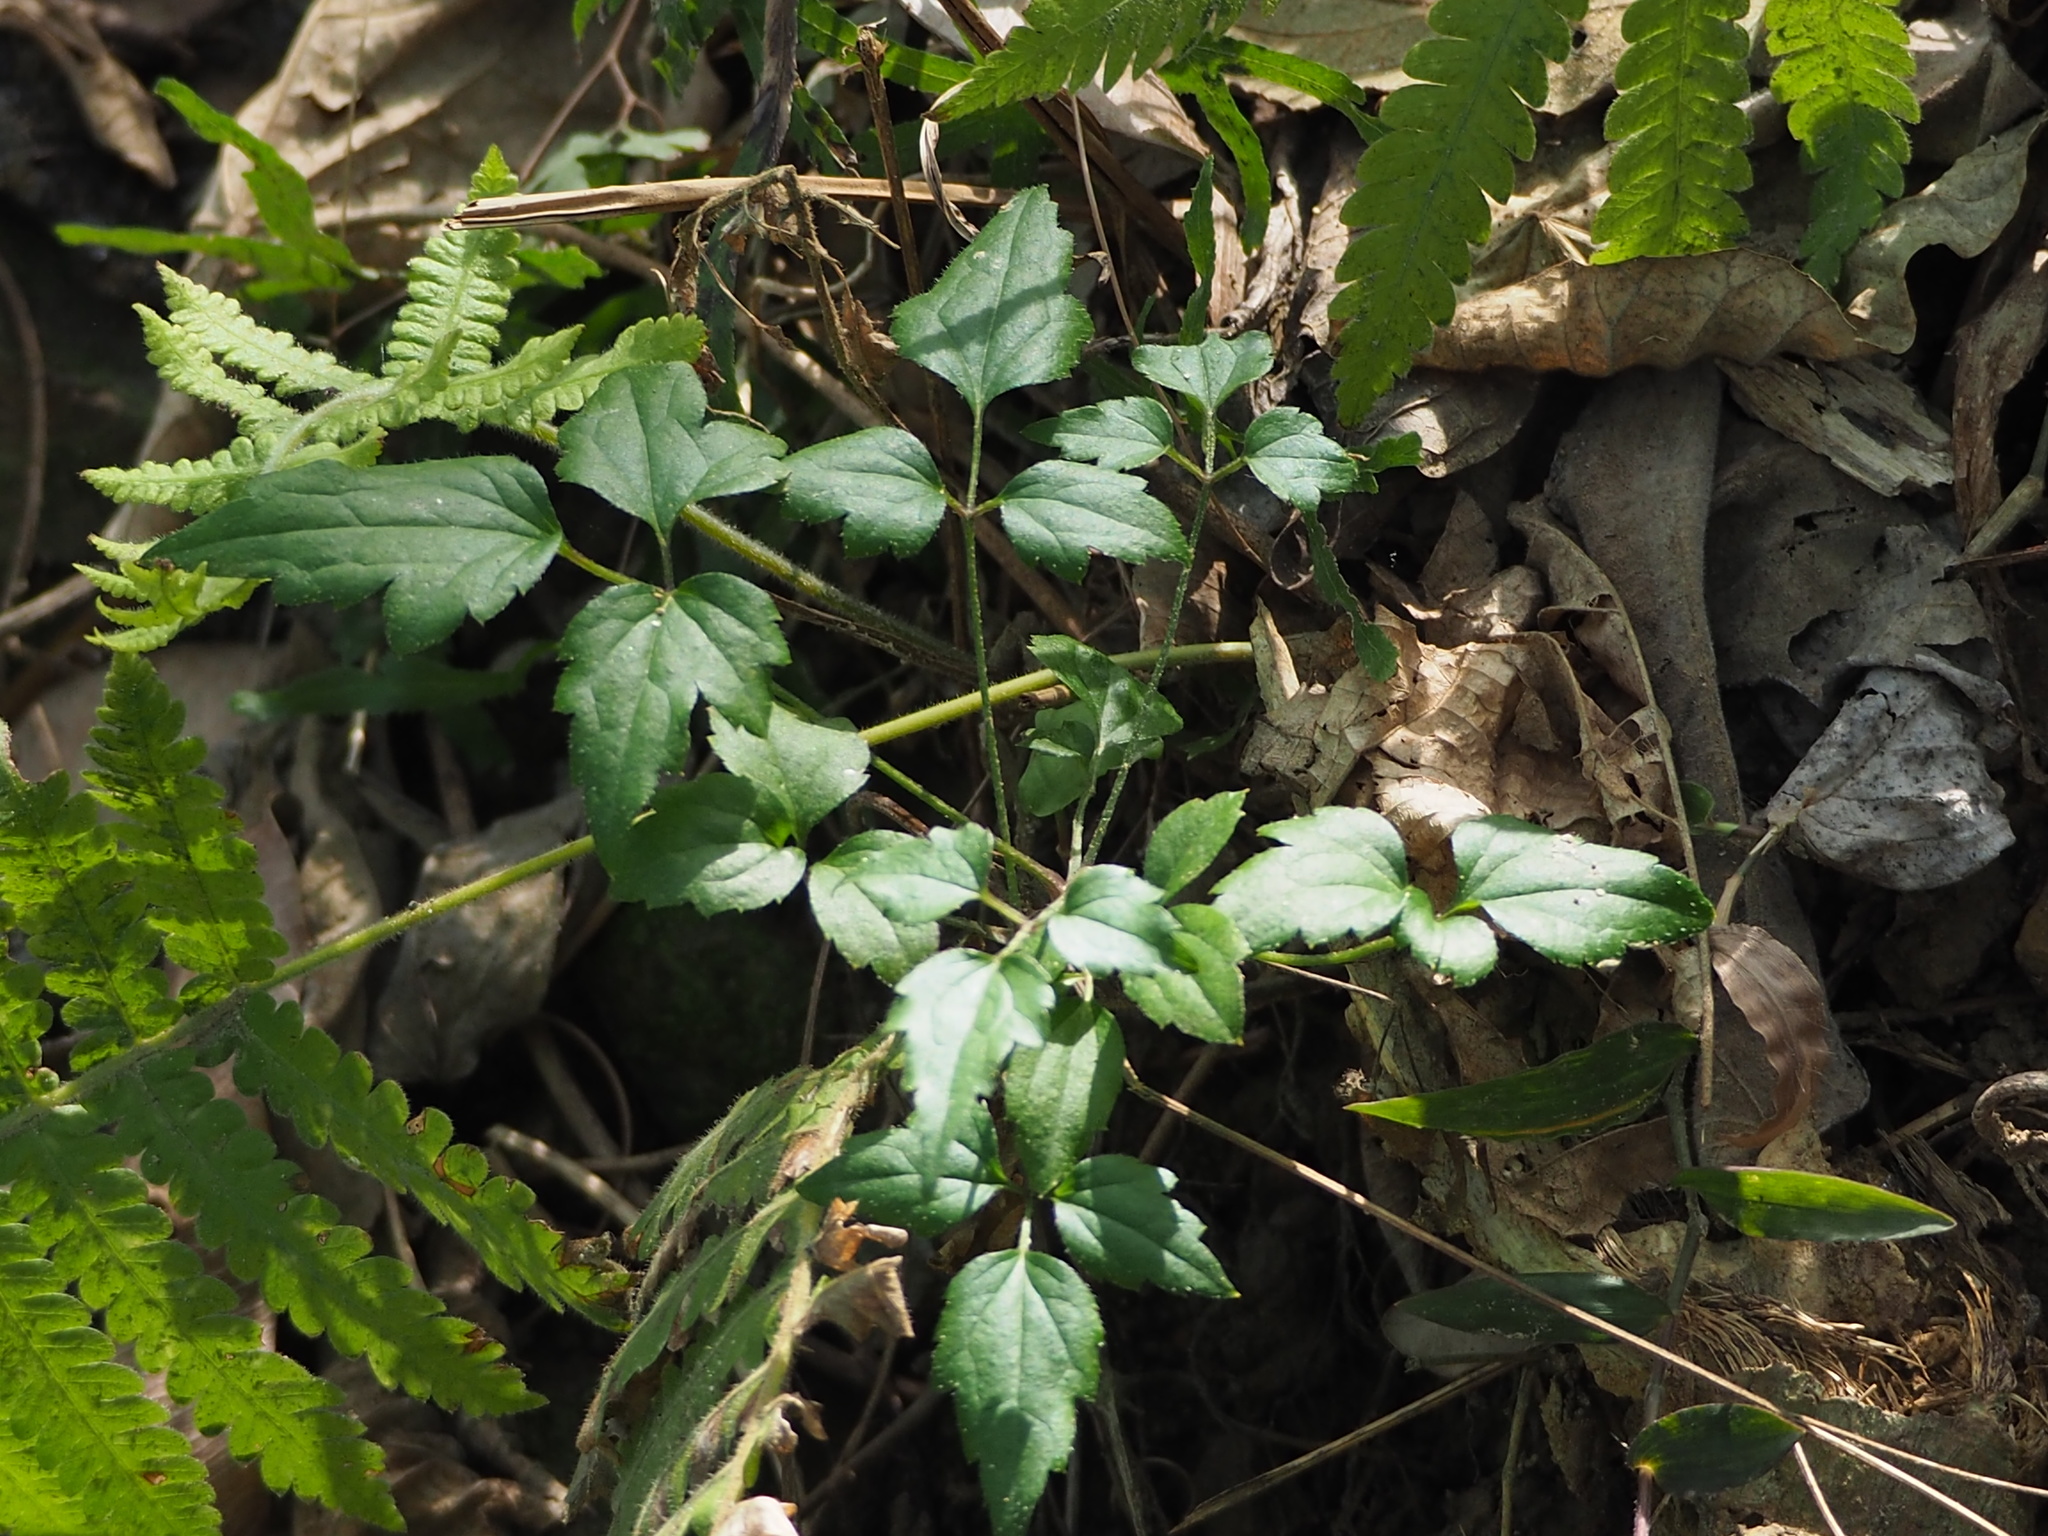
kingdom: Plantae
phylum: Tracheophyta
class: Magnoliopsida
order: Ranunculales
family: Ranunculaceae
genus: Clematis
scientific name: Clematis grata
